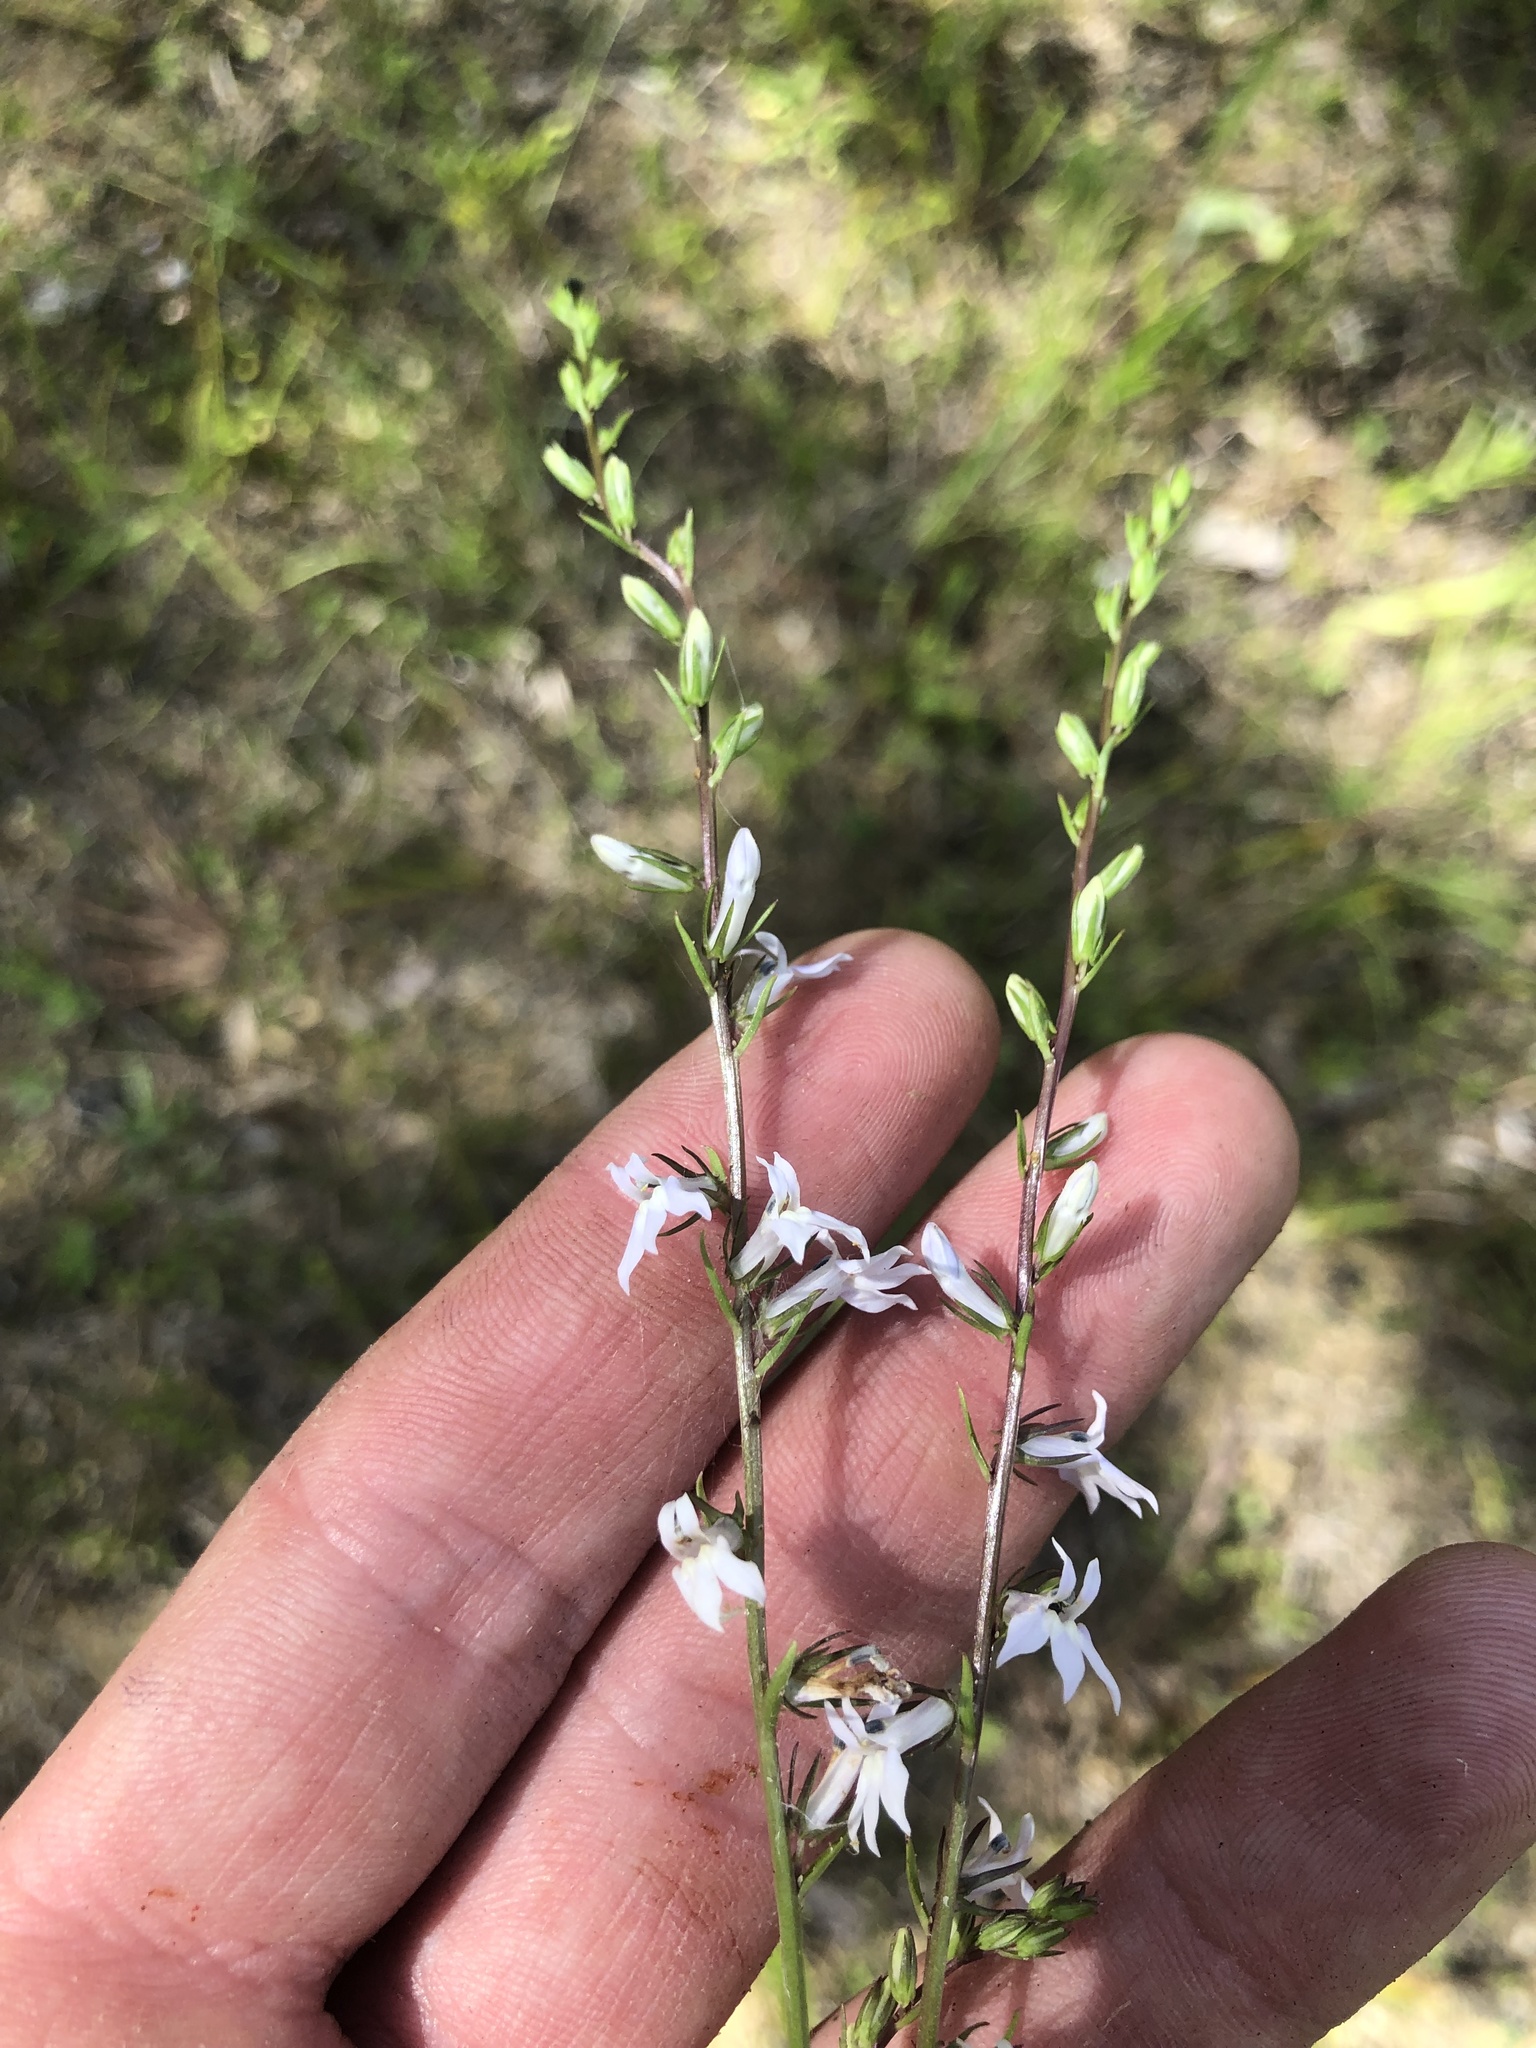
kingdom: Plantae
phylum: Tracheophyta
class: Magnoliopsida
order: Asterales
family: Campanulaceae
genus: Lobelia
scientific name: Lobelia spicata
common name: Pale-spike lobelia
